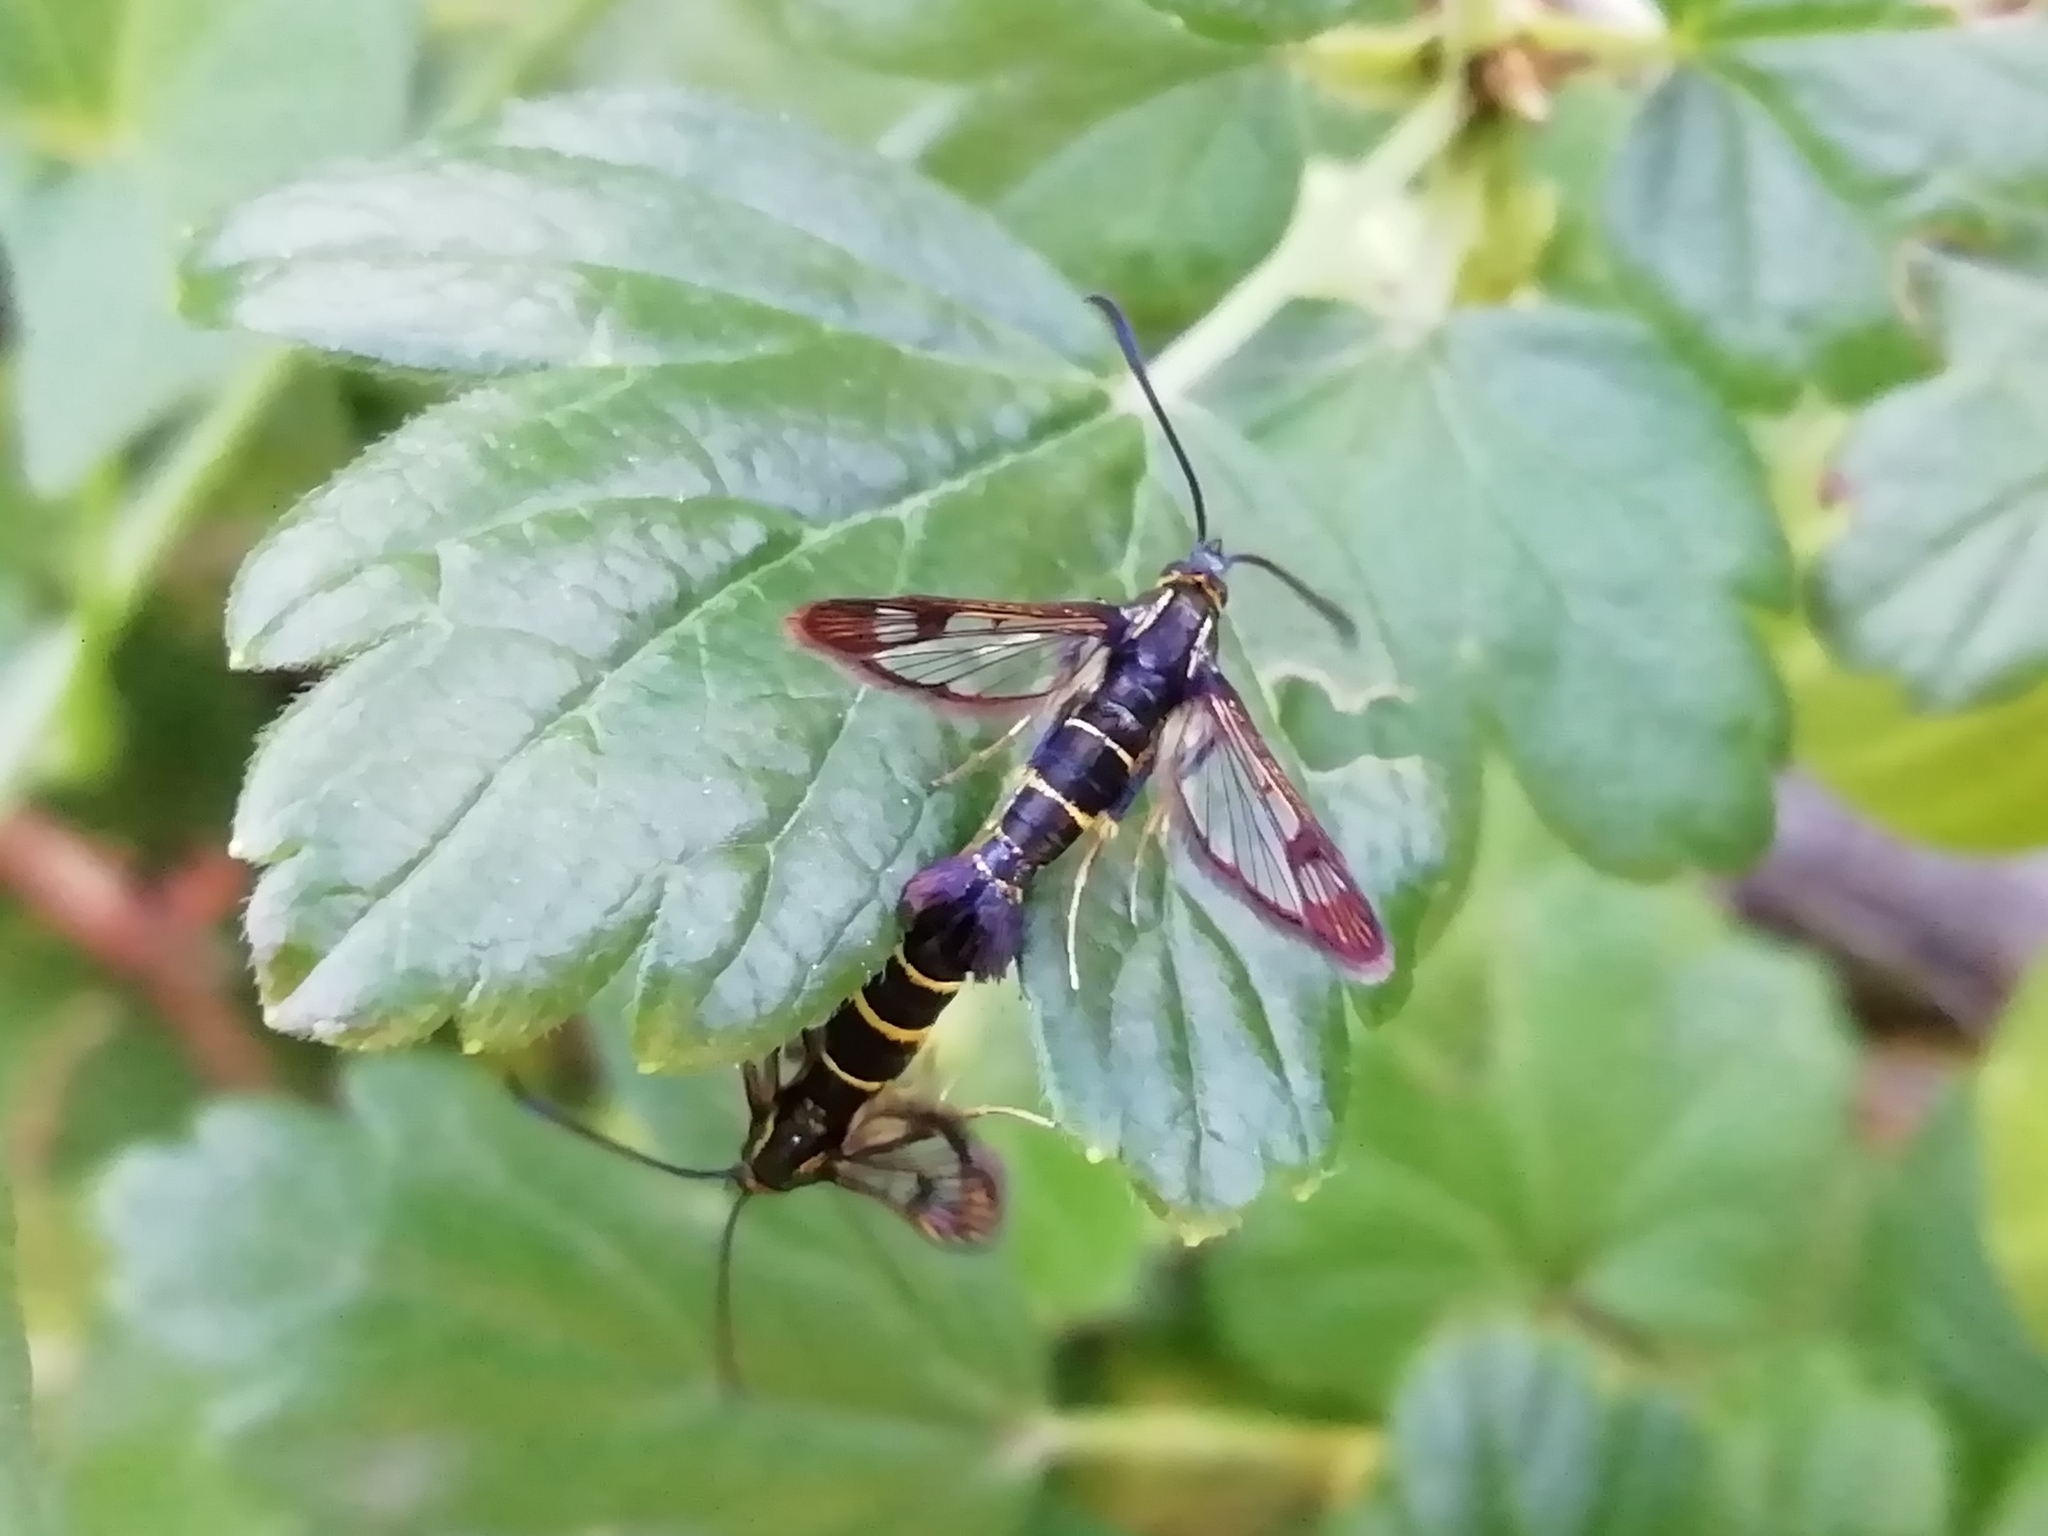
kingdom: Animalia
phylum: Arthropoda
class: Insecta
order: Lepidoptera
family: Sesiidae
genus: Synanthedon
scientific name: Synanthedon tipuliformis
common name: Currant clearwing
